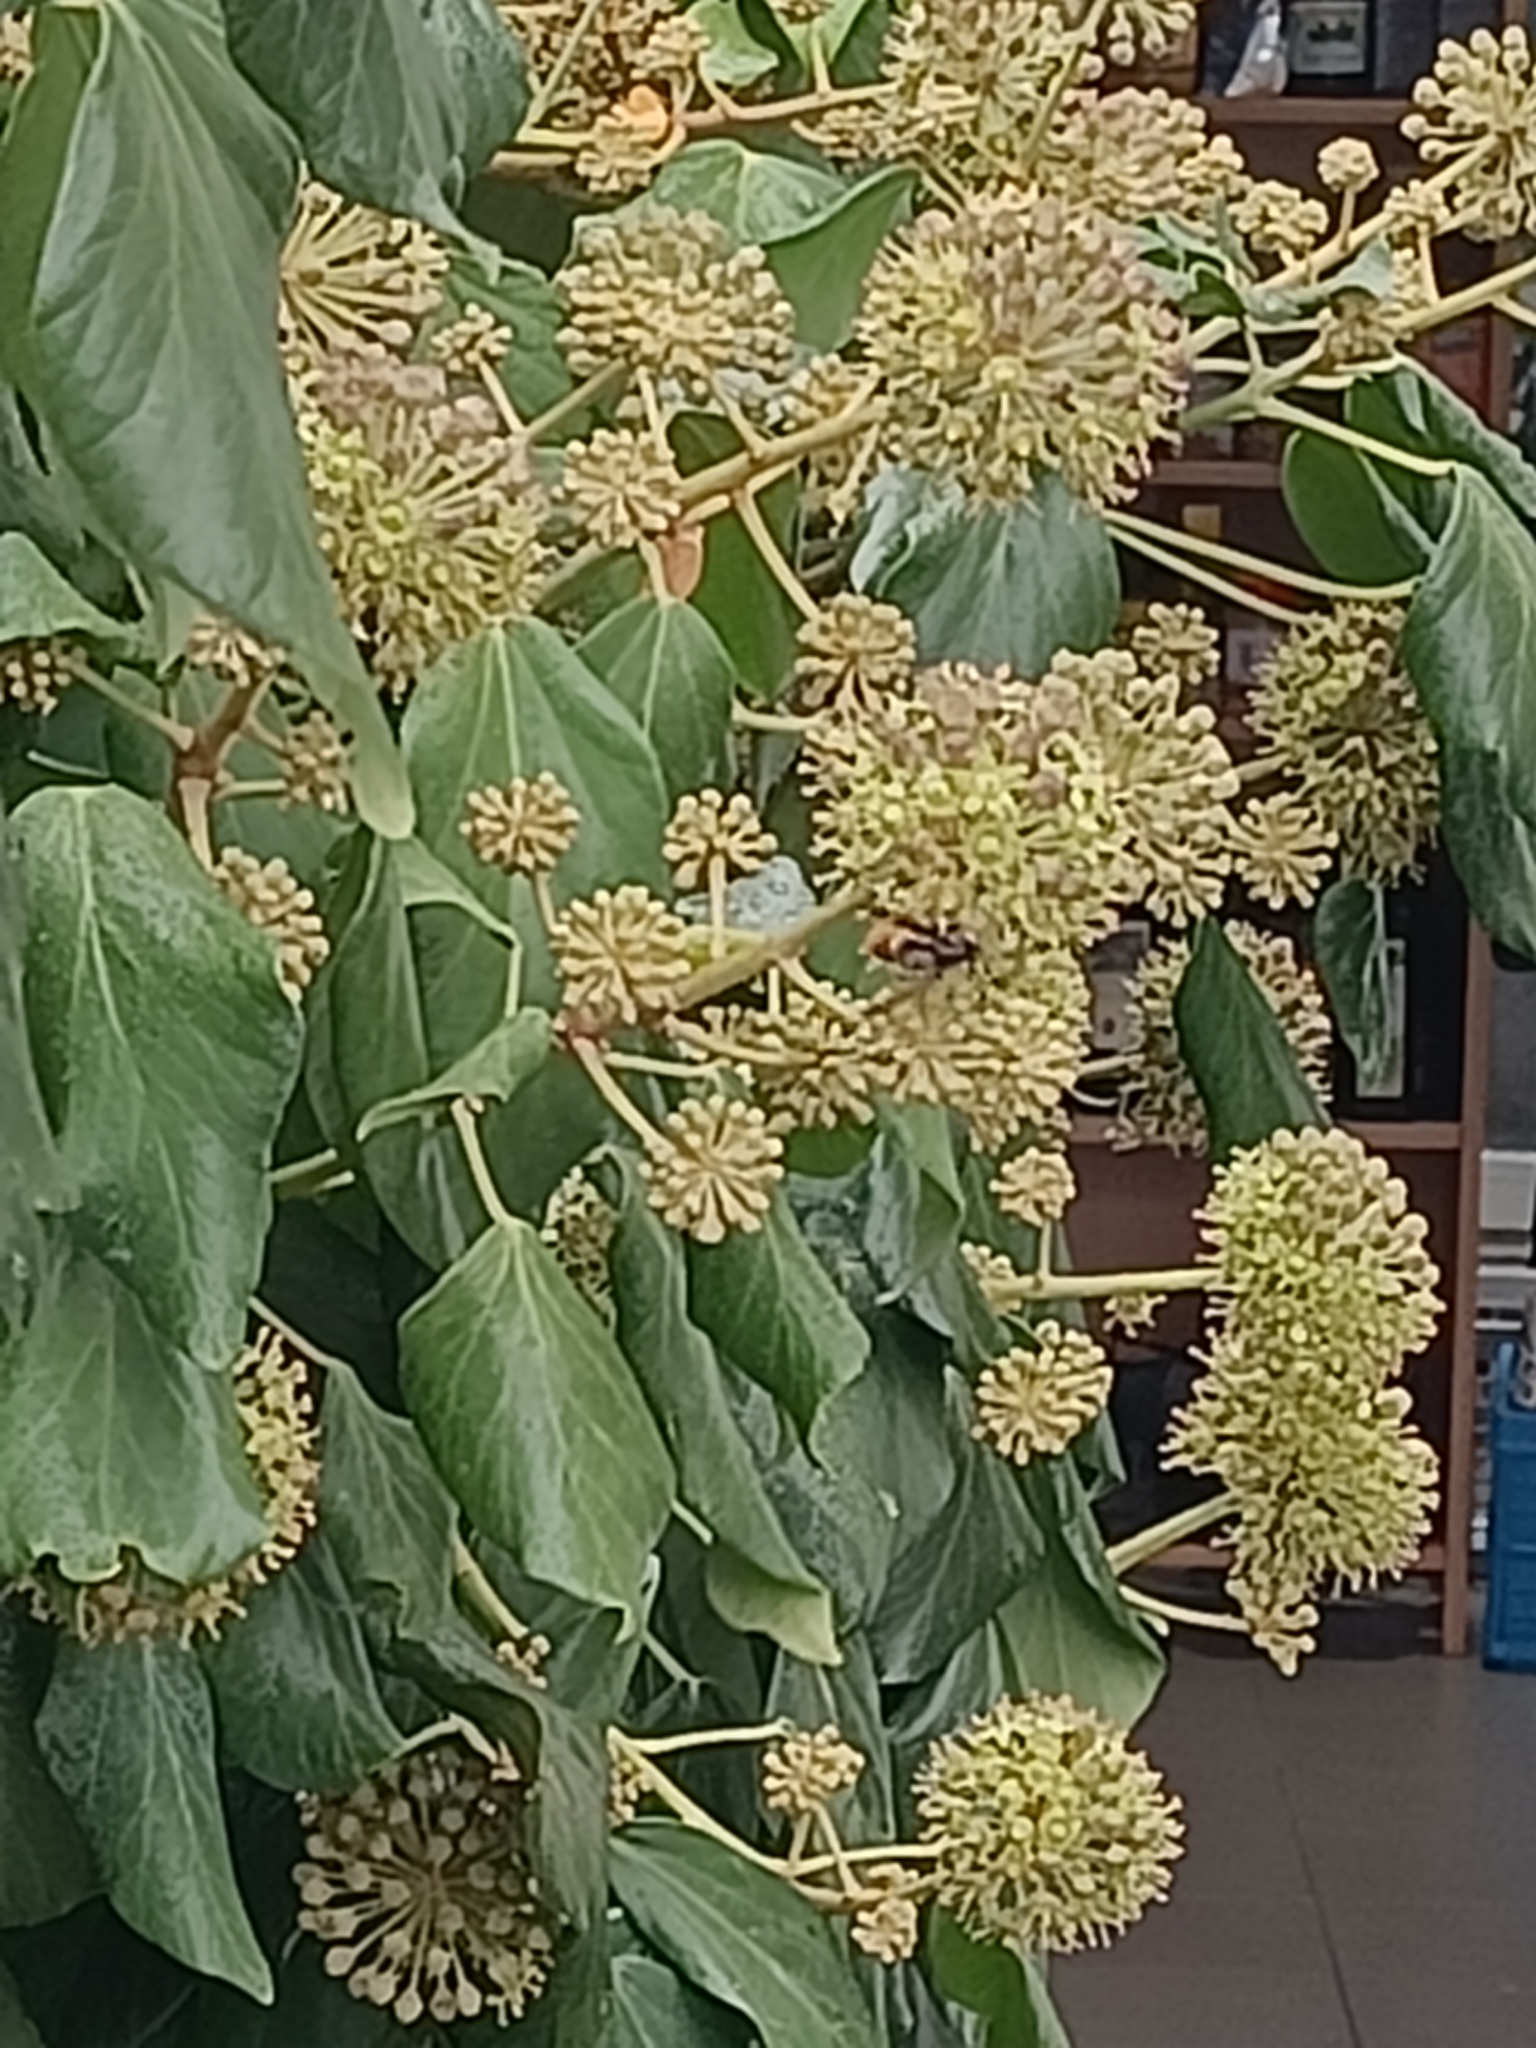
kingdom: Animalia
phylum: Arthropoda
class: Insecta
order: Hymenoptera
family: Vespidae
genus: Vespa
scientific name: Vespa velutina
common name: Asian hornet
